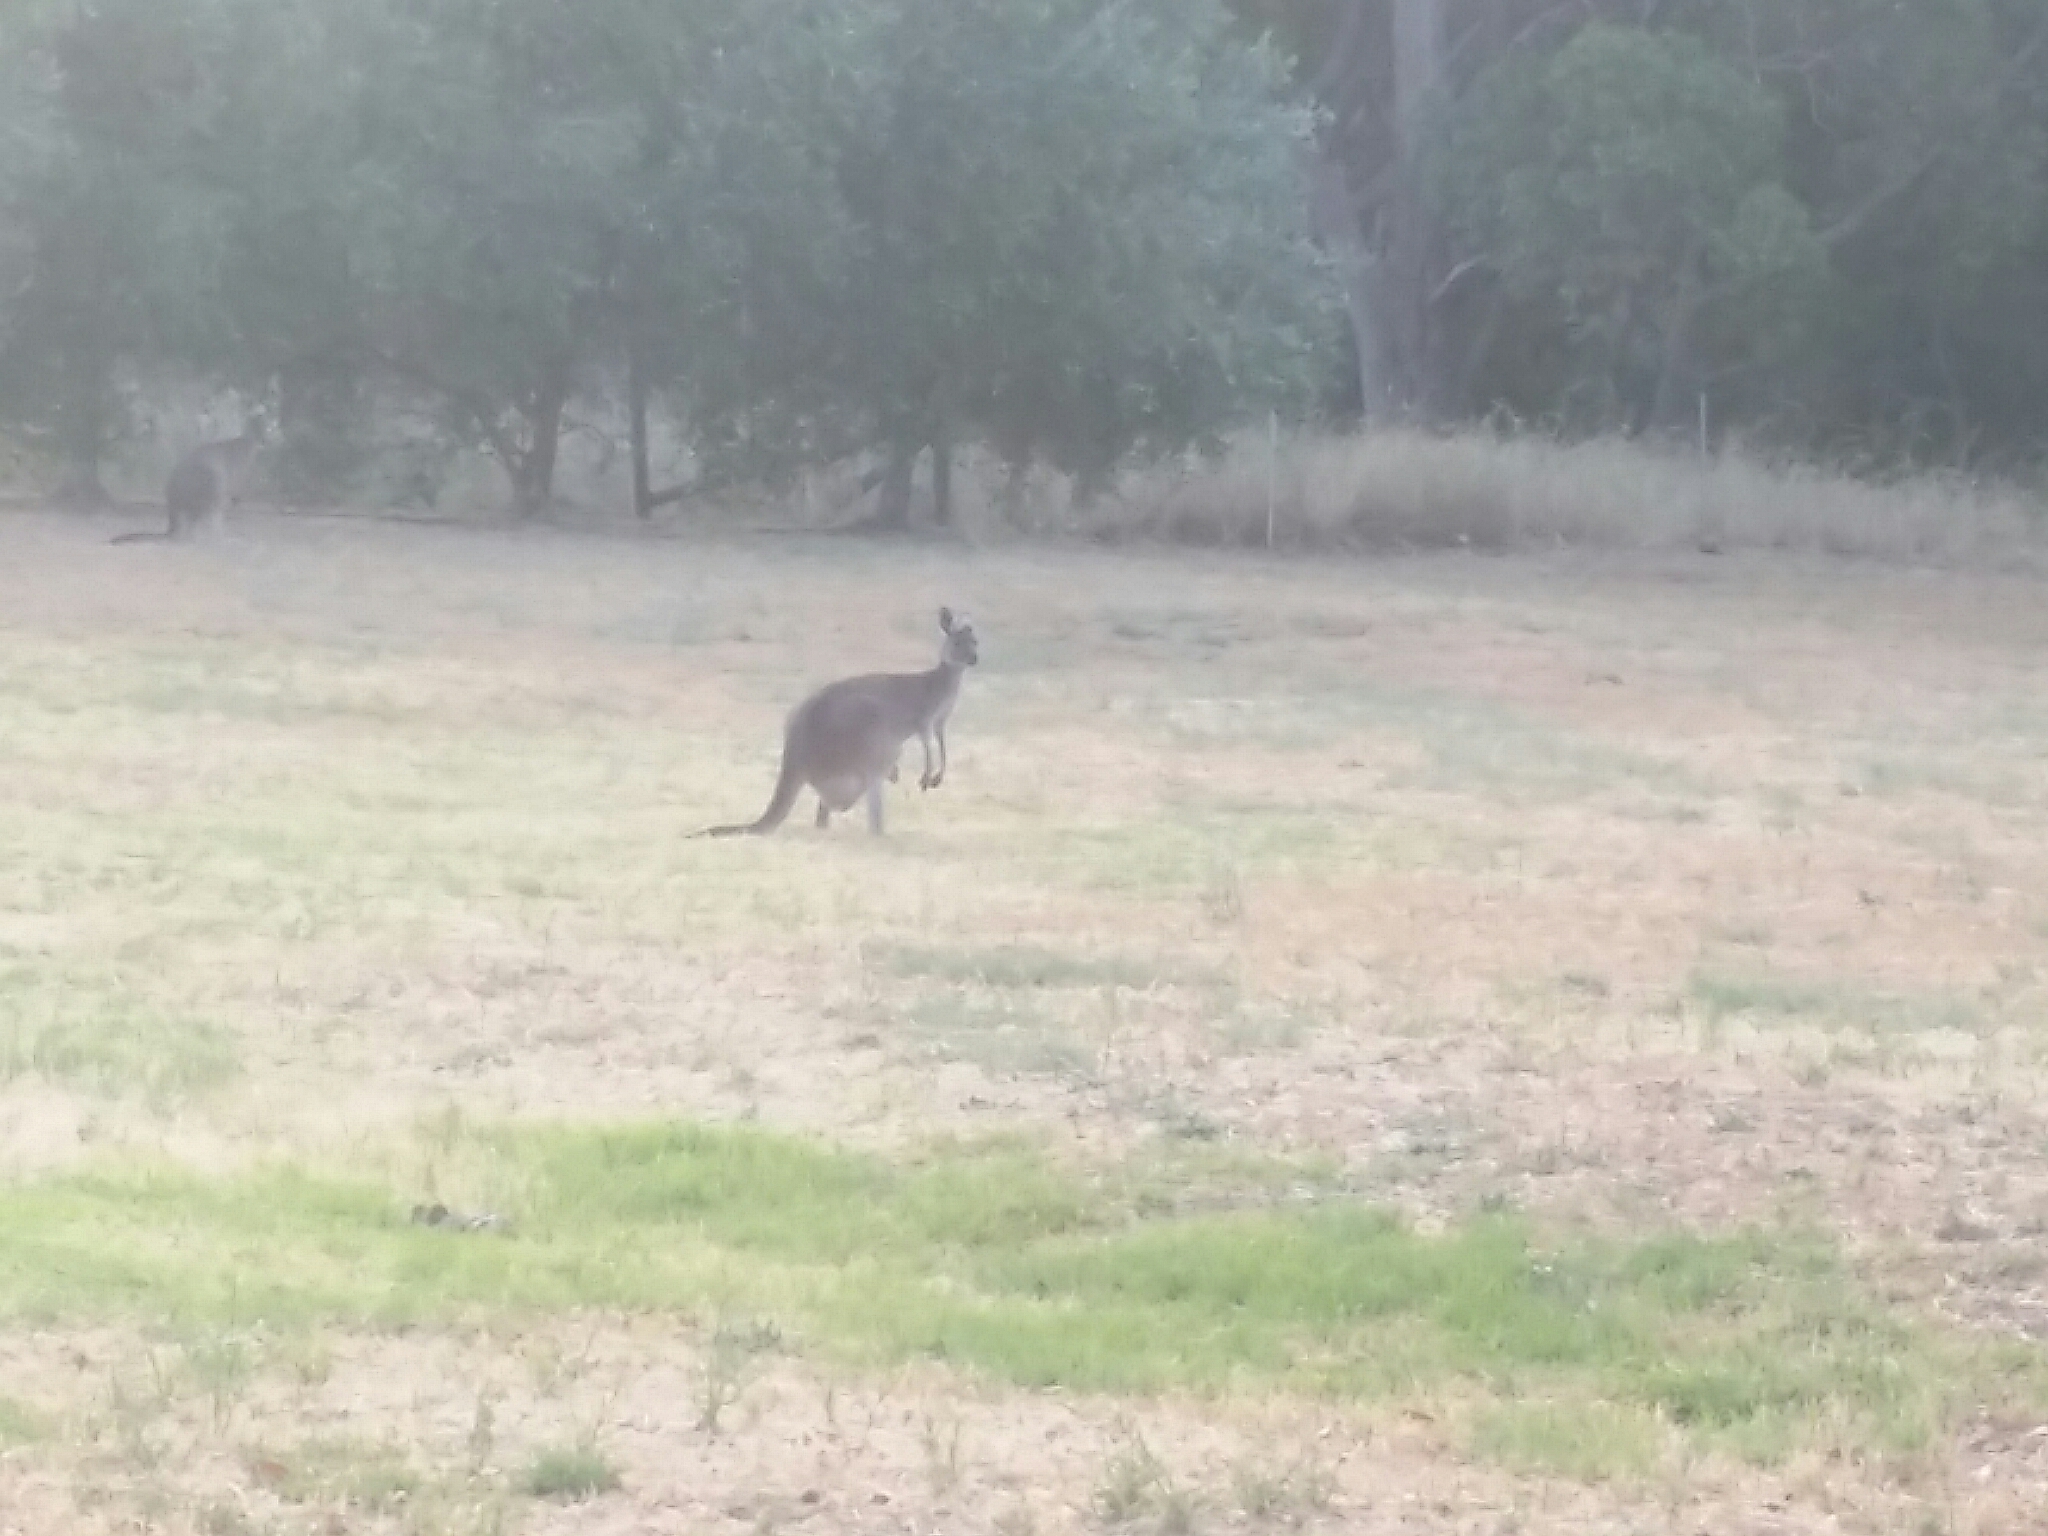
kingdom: Animalia
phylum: Chordata
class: Mammalia
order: Diprotodontia
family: Macropodidae
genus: Macropus
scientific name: Macropus fuliginosus
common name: Western grey kangaroo
